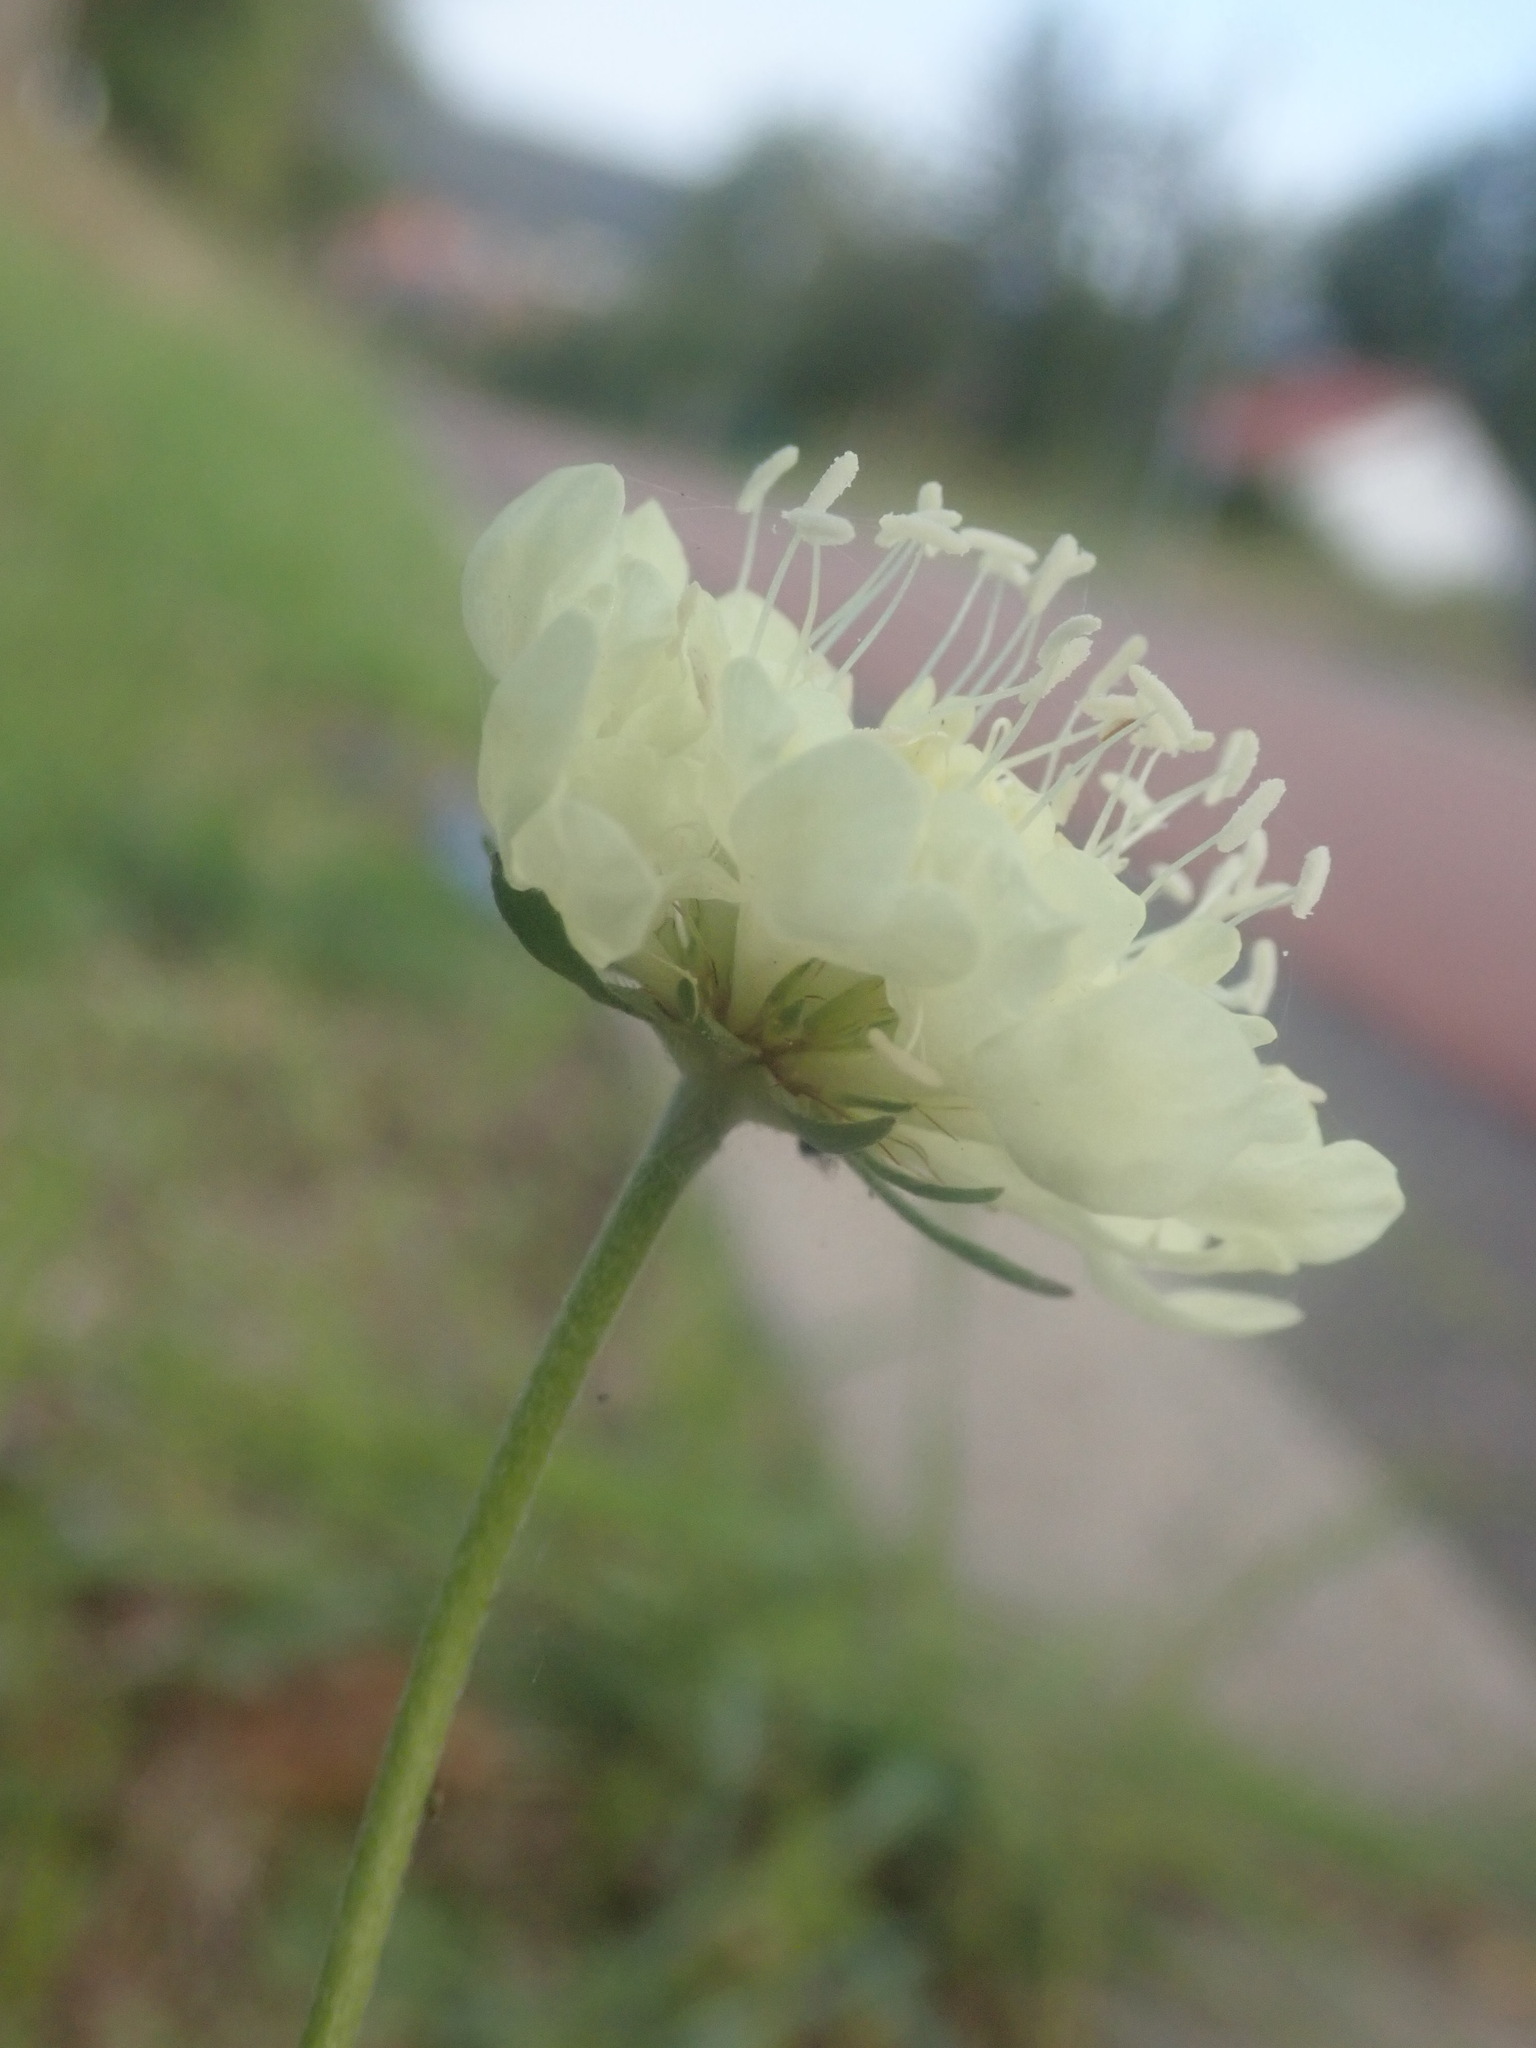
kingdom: Plantae
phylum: Tracheophyta
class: Magnoliopsida
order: Dipsacales
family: Caprifoliaceae
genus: Scabiosa
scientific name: Scabiosa ochroleuca
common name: Cream pincushions
